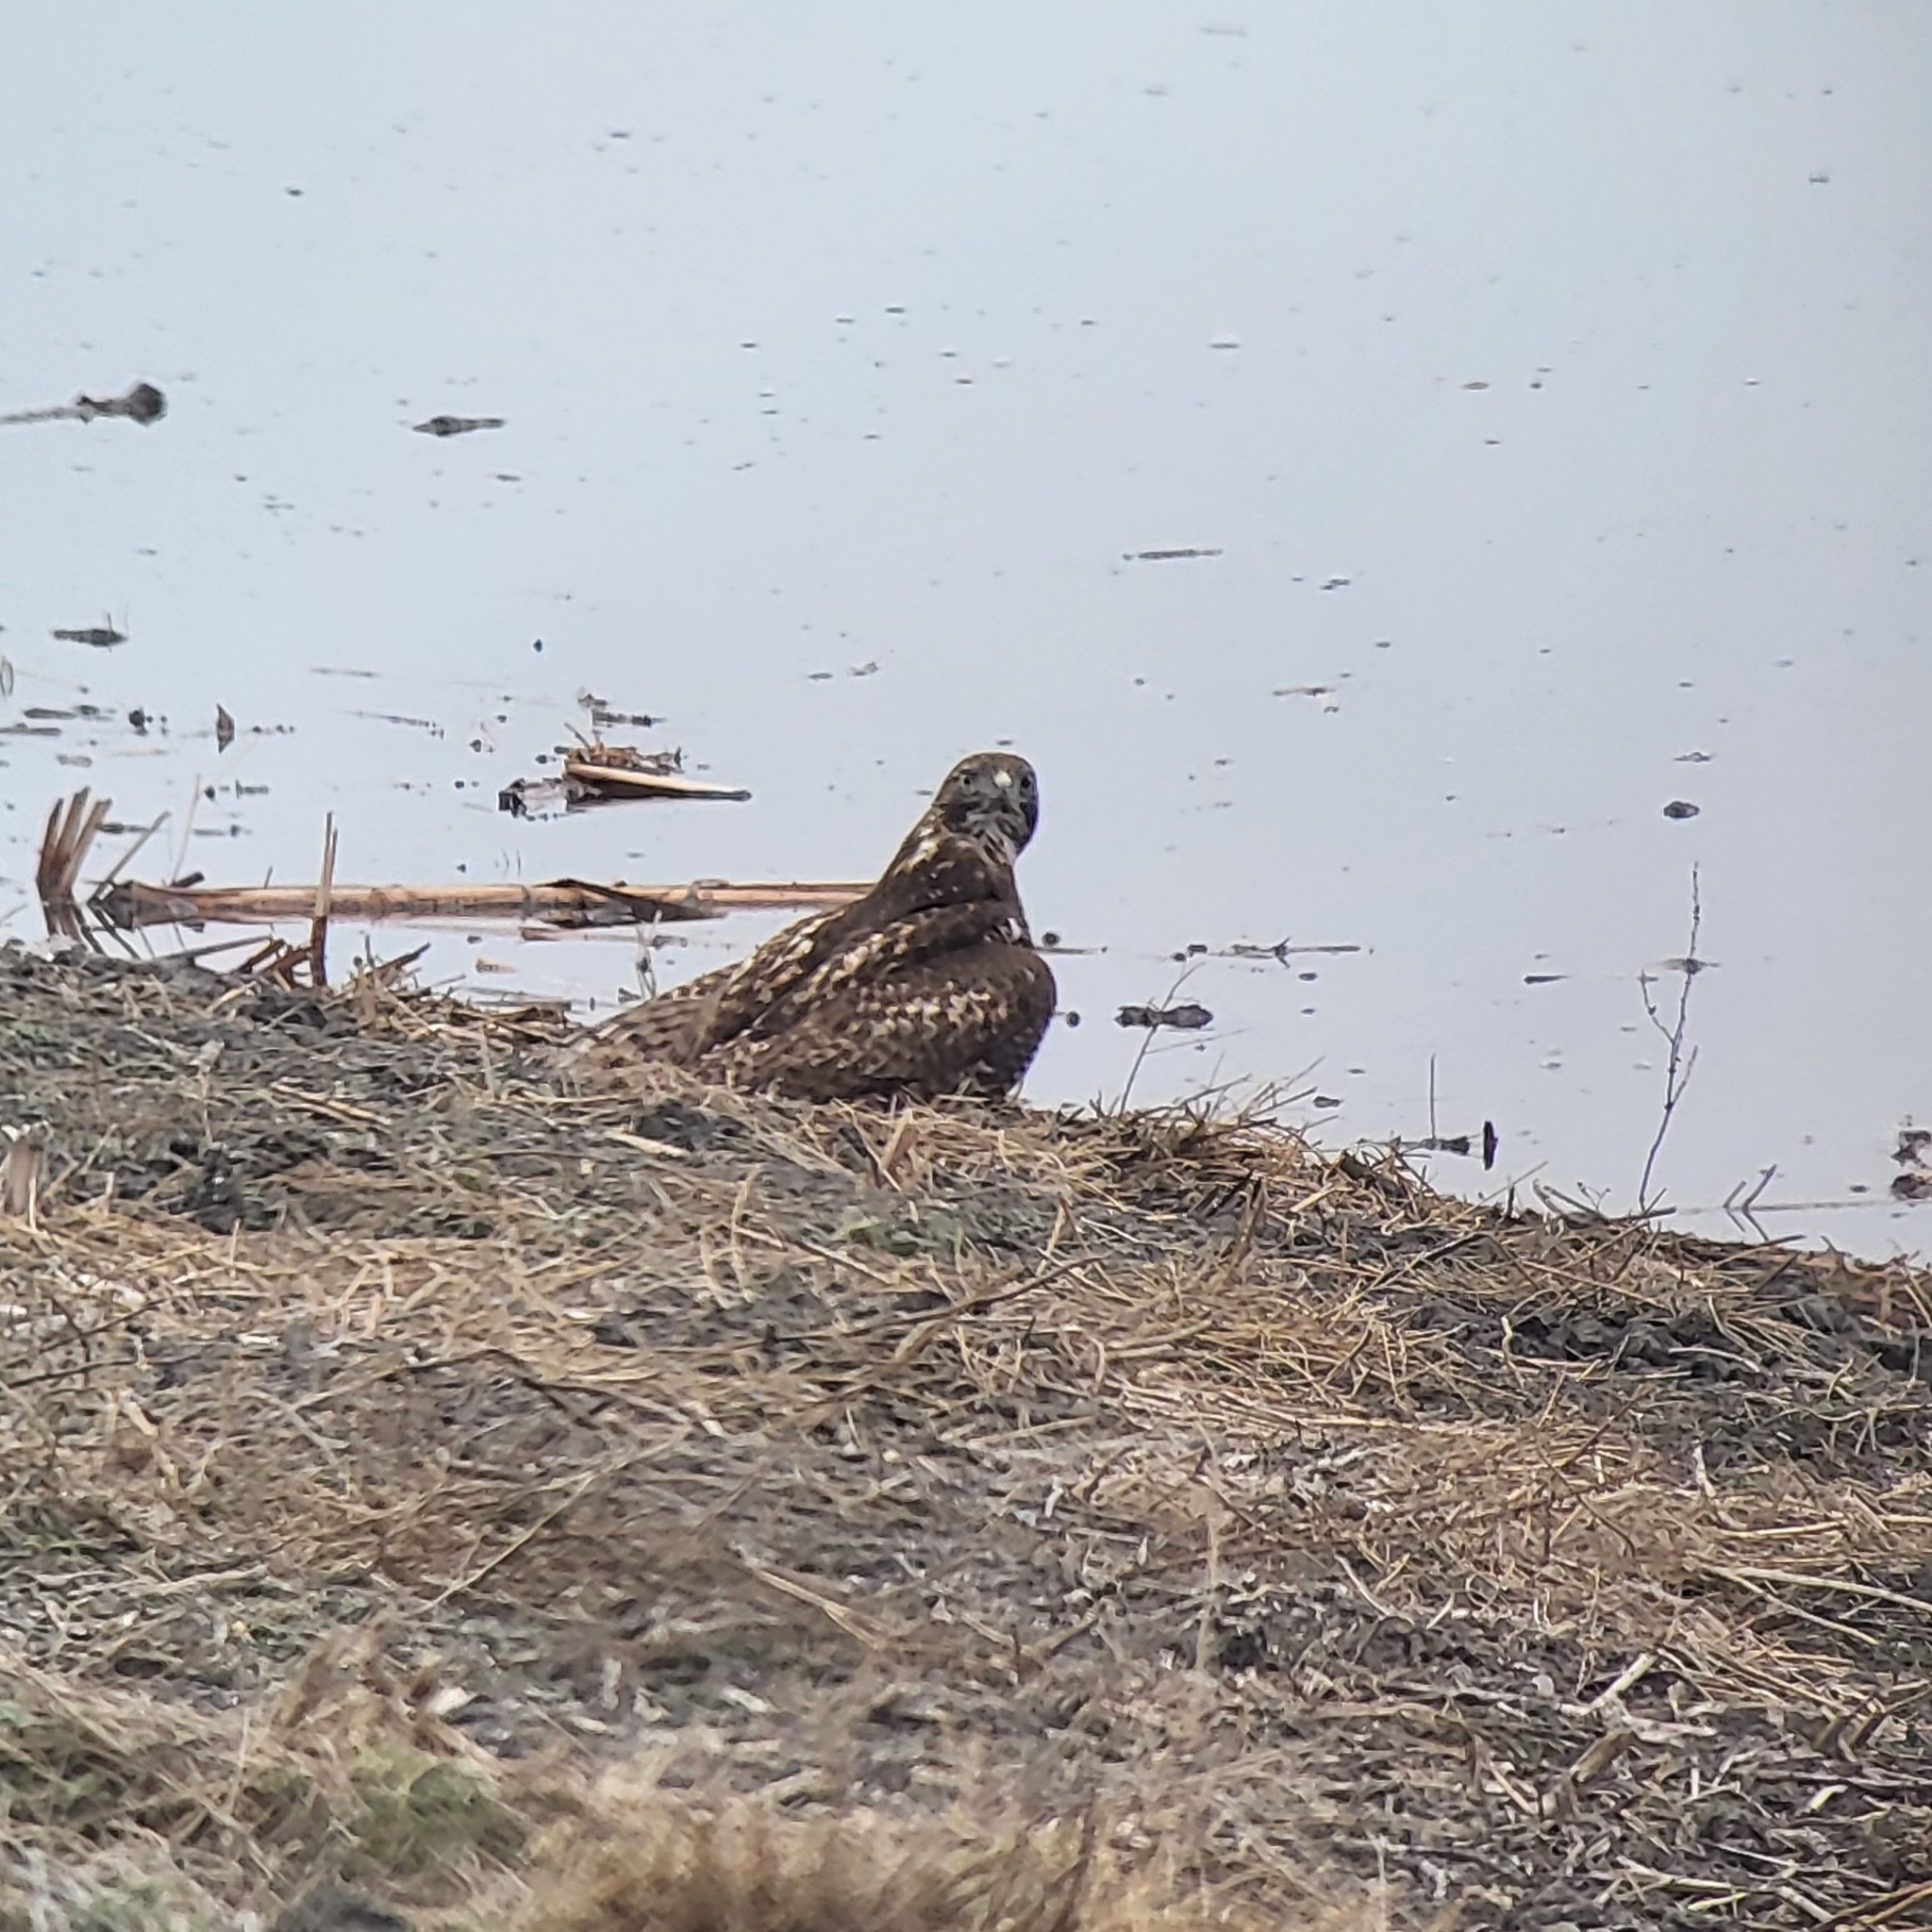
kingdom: Animalia
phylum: Chordata
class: Aves
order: Accipitriformes
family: Accipitridae
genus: Buteo
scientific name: Buteo jamaicensis
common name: Red-tailed hawk
